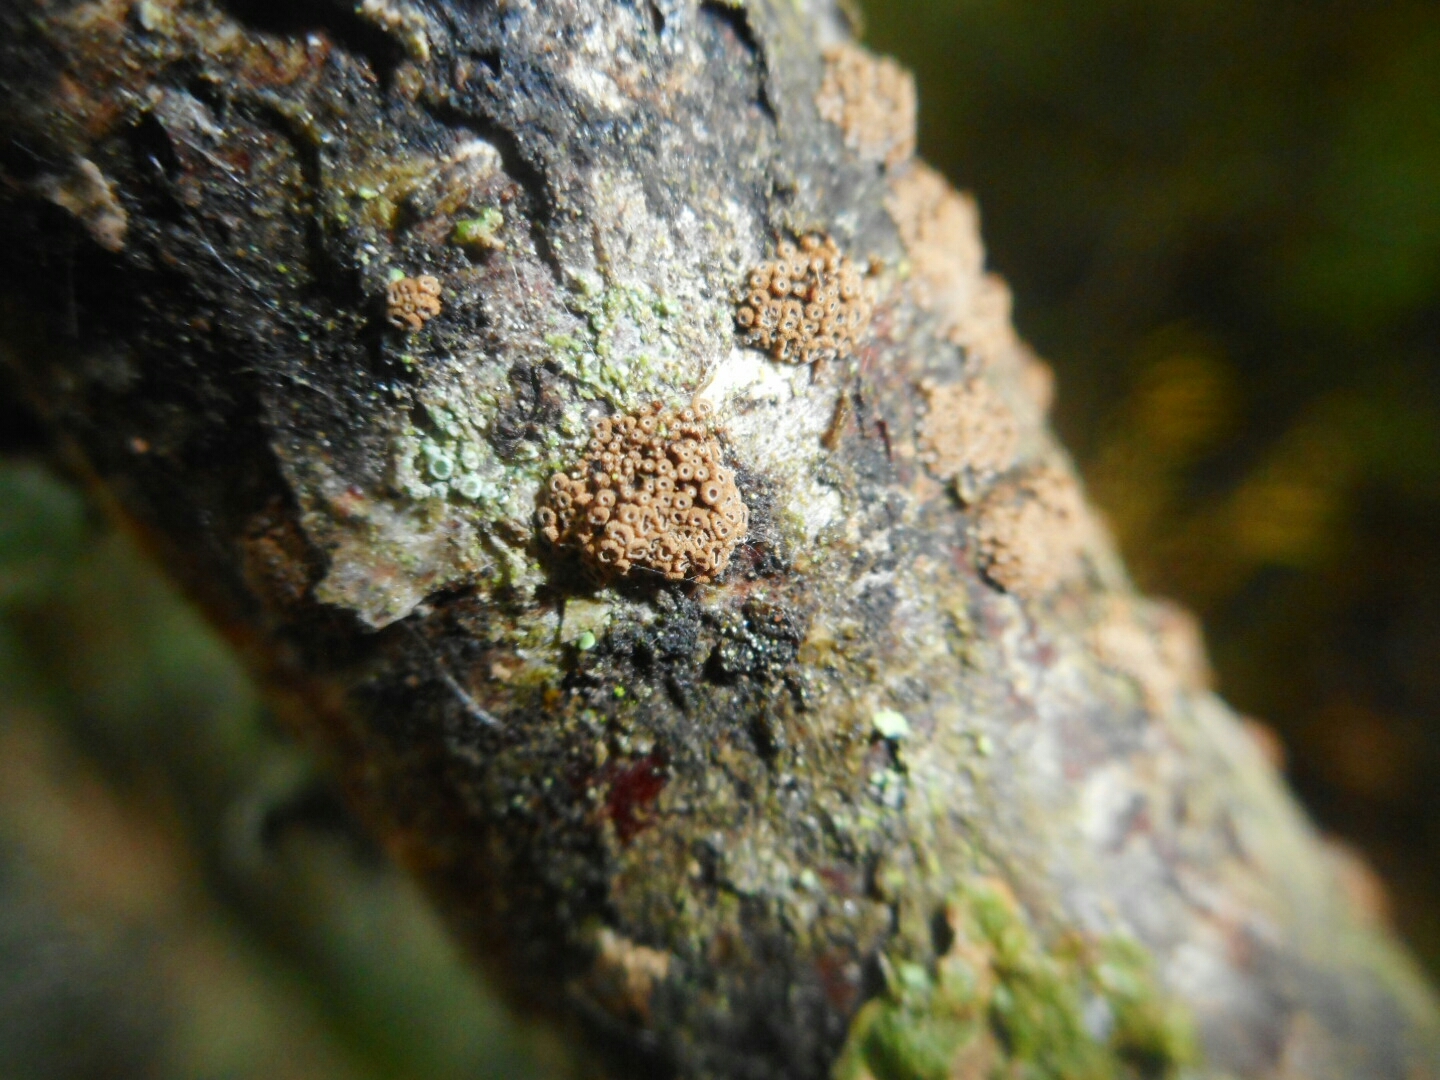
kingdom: Fungi
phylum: Basidiomycota
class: Agaricomycetes
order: Agaricales
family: Niaceae
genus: Merismodes
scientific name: Merismodes fasciculata
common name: Crowded cuplet
